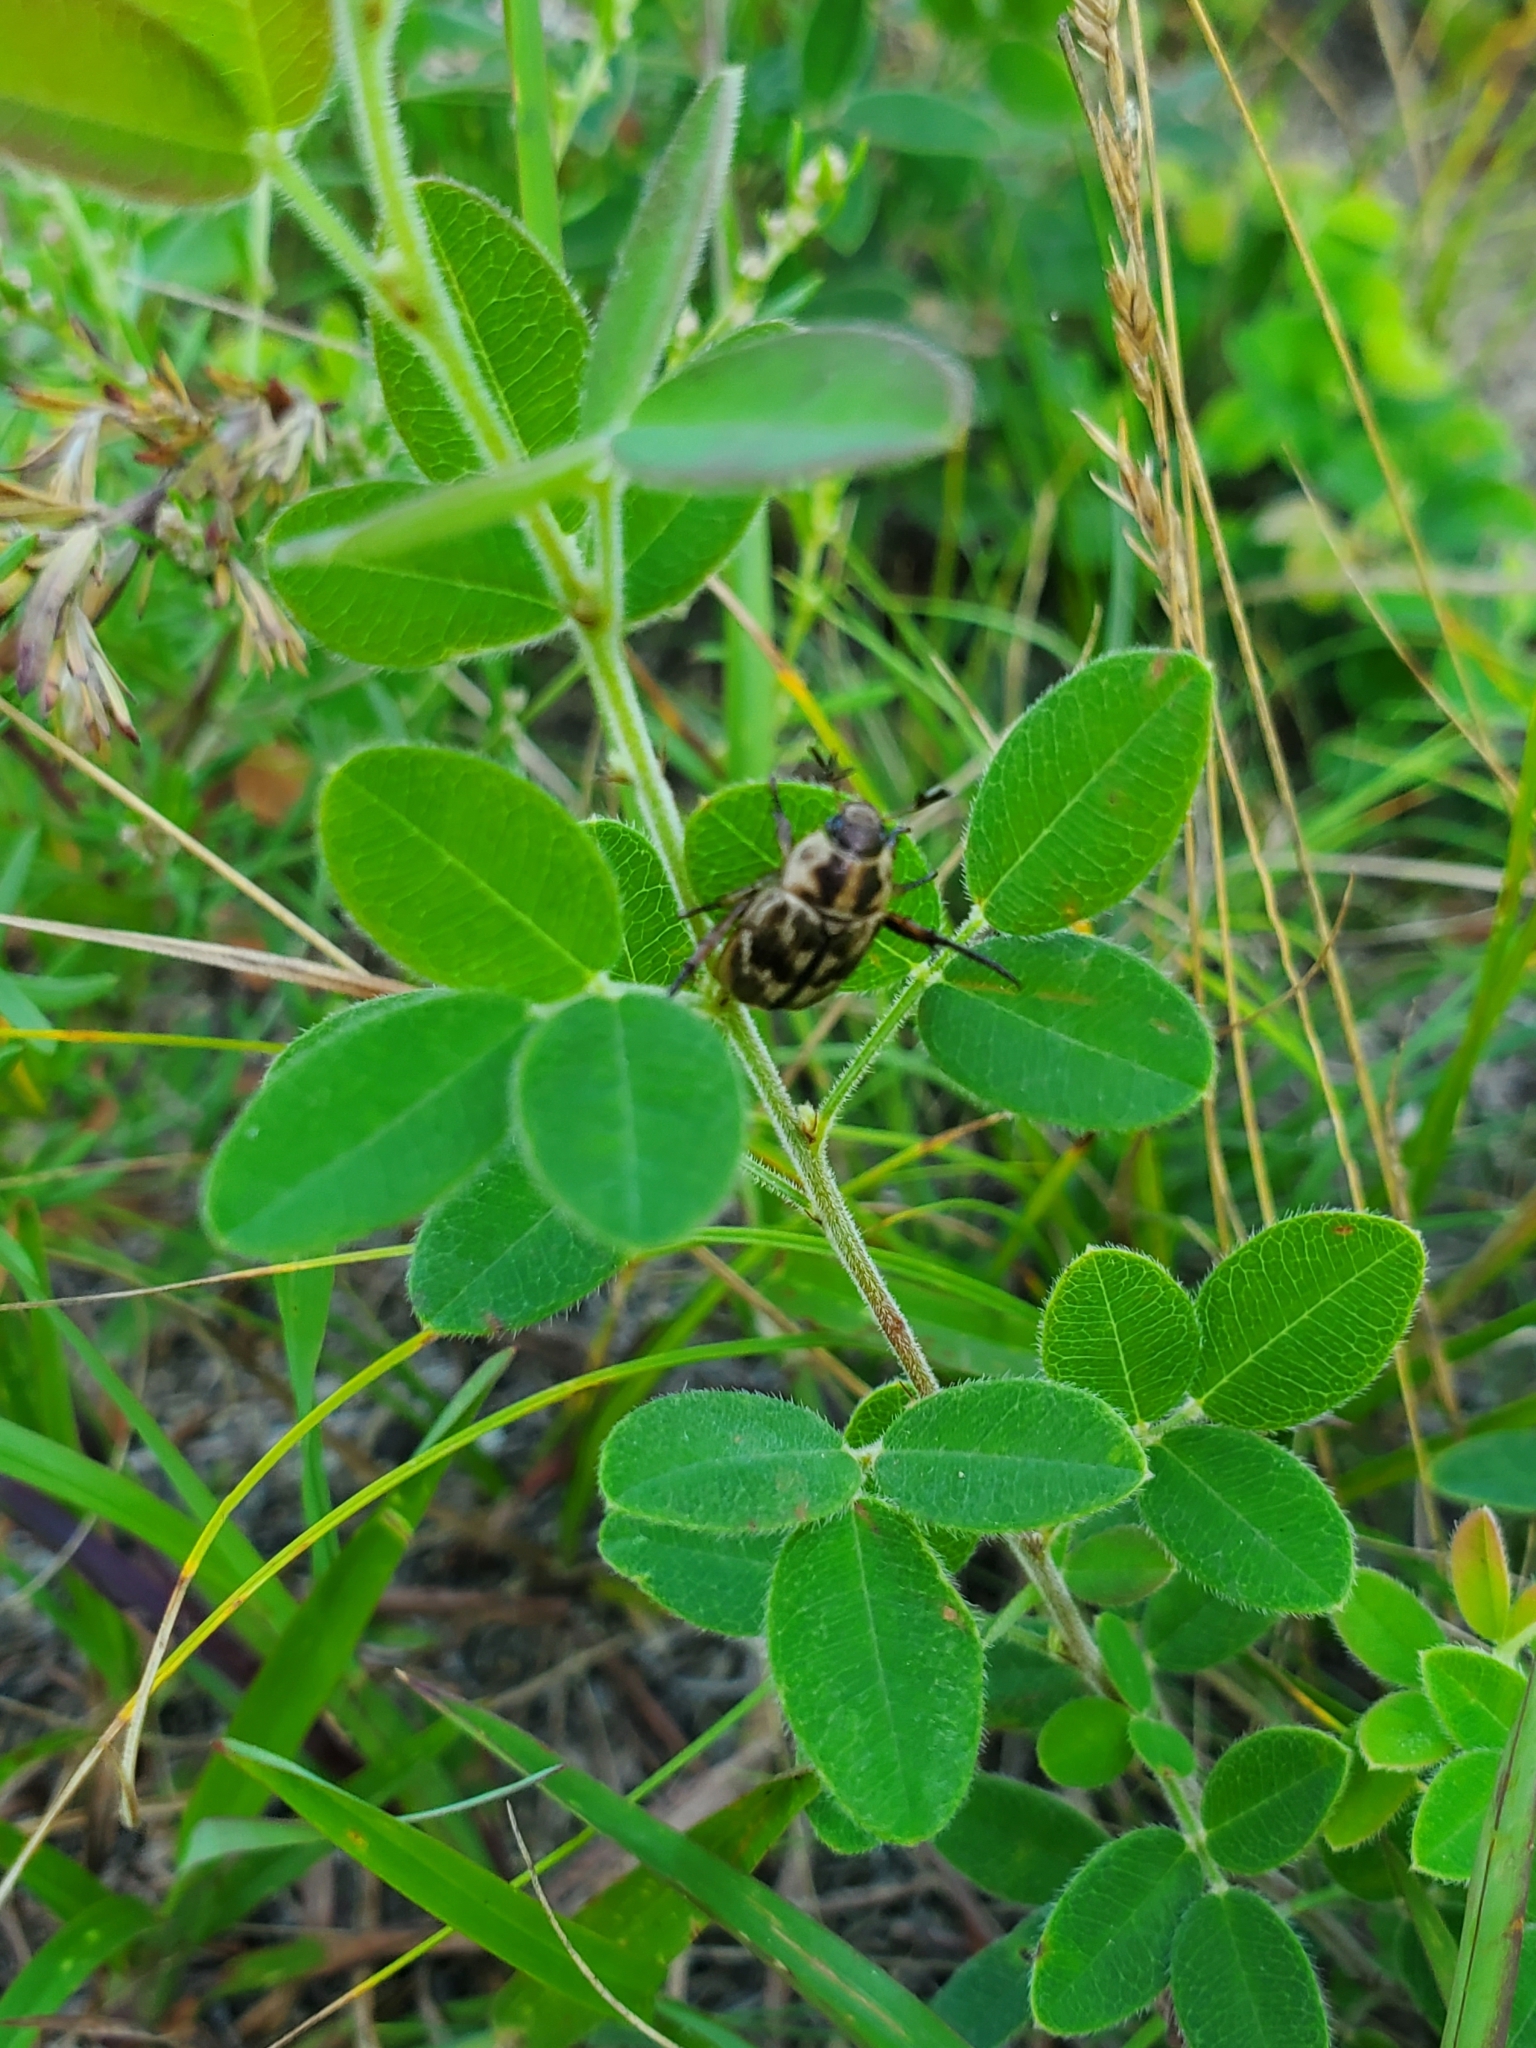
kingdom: Animalia
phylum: Arthropoda
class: Insecta
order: Coleoptera
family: Scarabaeidae
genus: Exomala
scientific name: Exomala orientalis
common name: Oriental beetle
